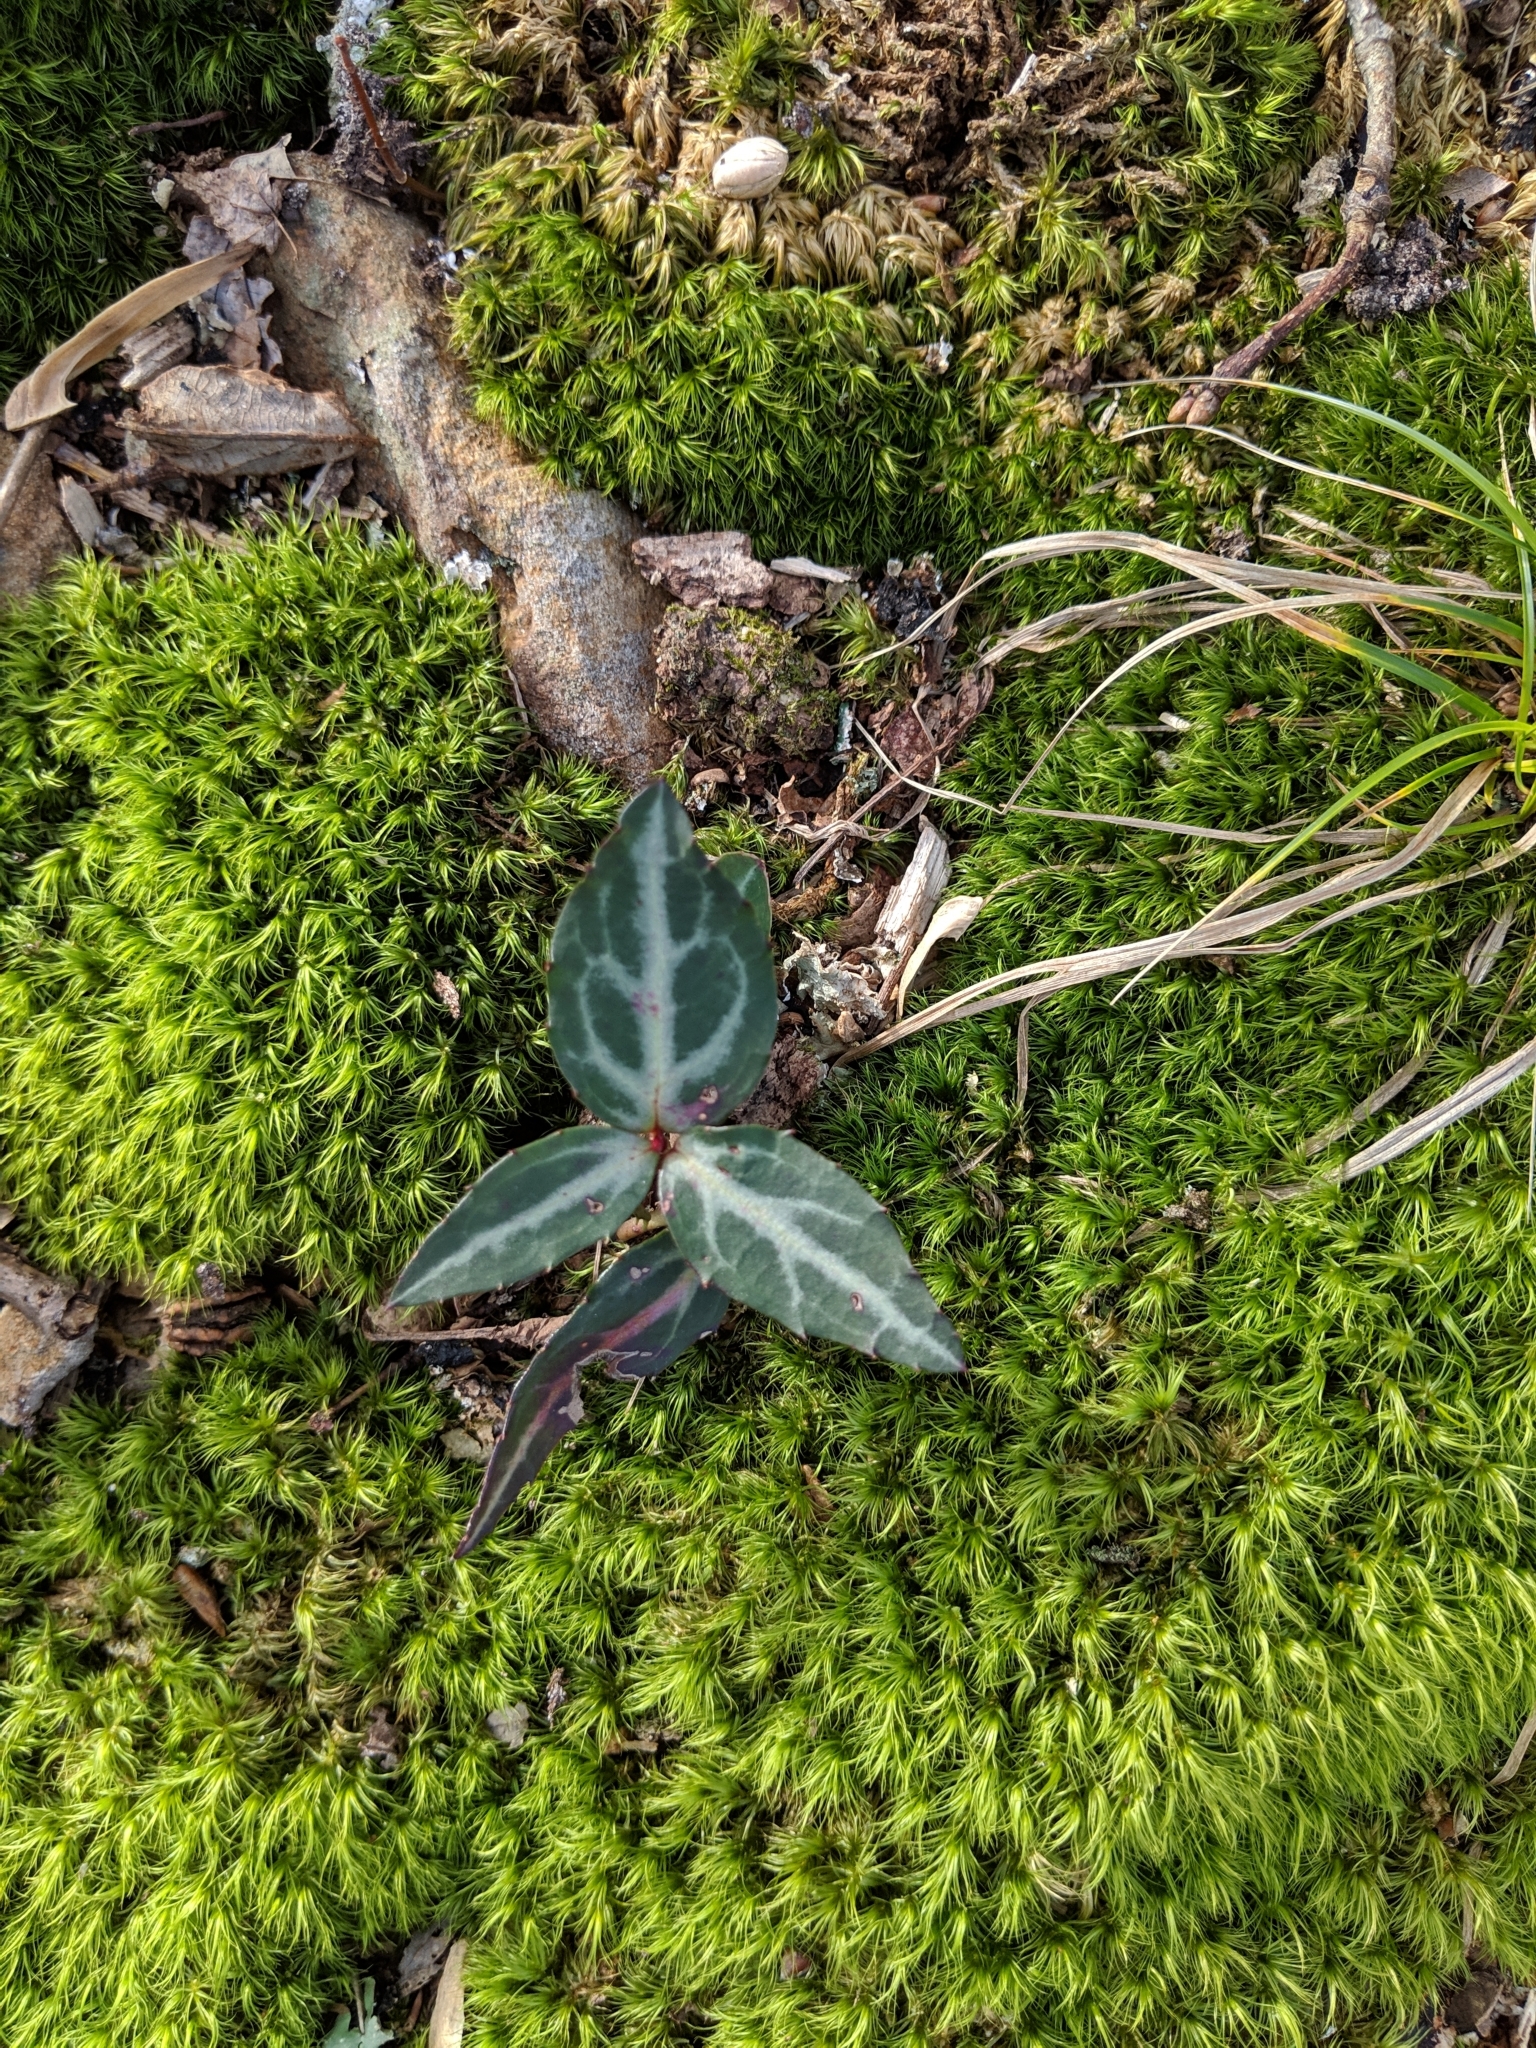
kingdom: Plantae
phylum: Tracheophyta
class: Magnoliopsida
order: Ericales
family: Ericaceae
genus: Chimaphila
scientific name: Chimaphila maculata
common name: Spotted pipsissewa
